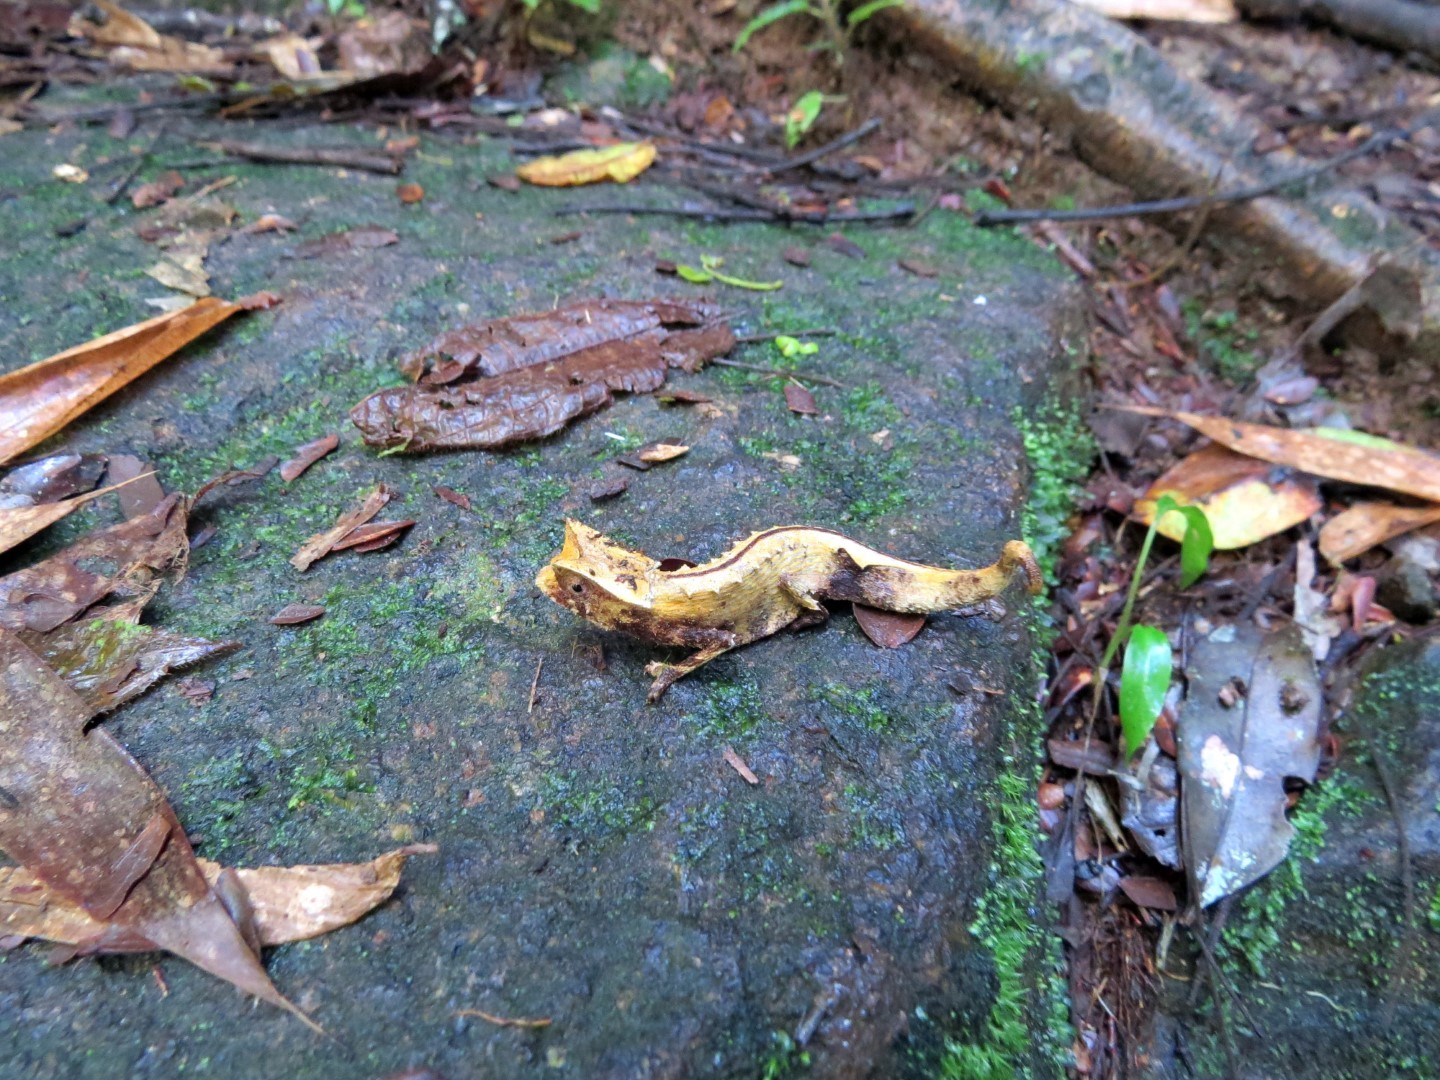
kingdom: Animalia
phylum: Chordata
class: Squamata
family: Chamaeleonidae
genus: Brookesia
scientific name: Brookesia griveaudi
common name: Marojejy leaf chameleon
